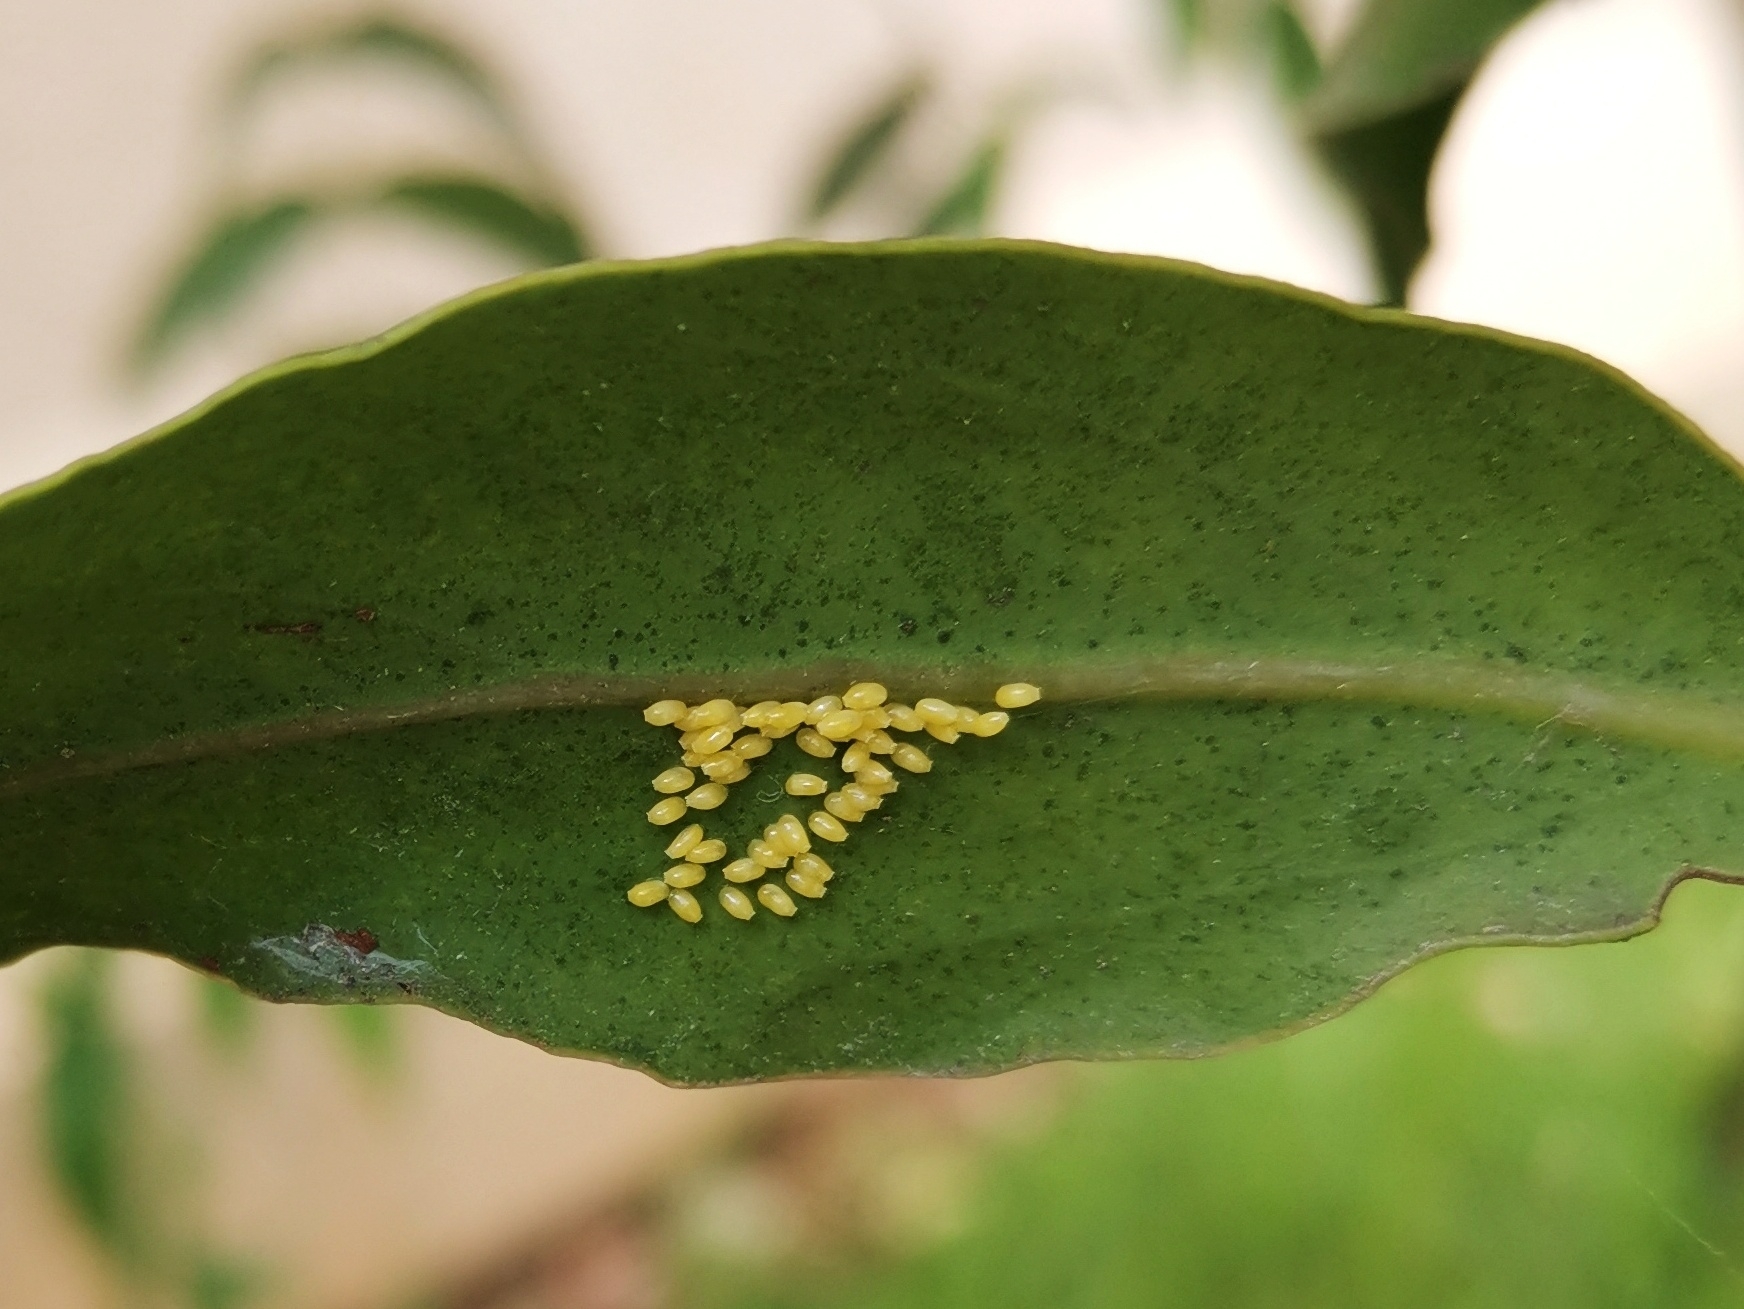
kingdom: Animalia
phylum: Arthropoda
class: Insecta
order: Lepidoptera
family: Pieridae
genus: Delias
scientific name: Delias eucharis
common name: Common jezebel
